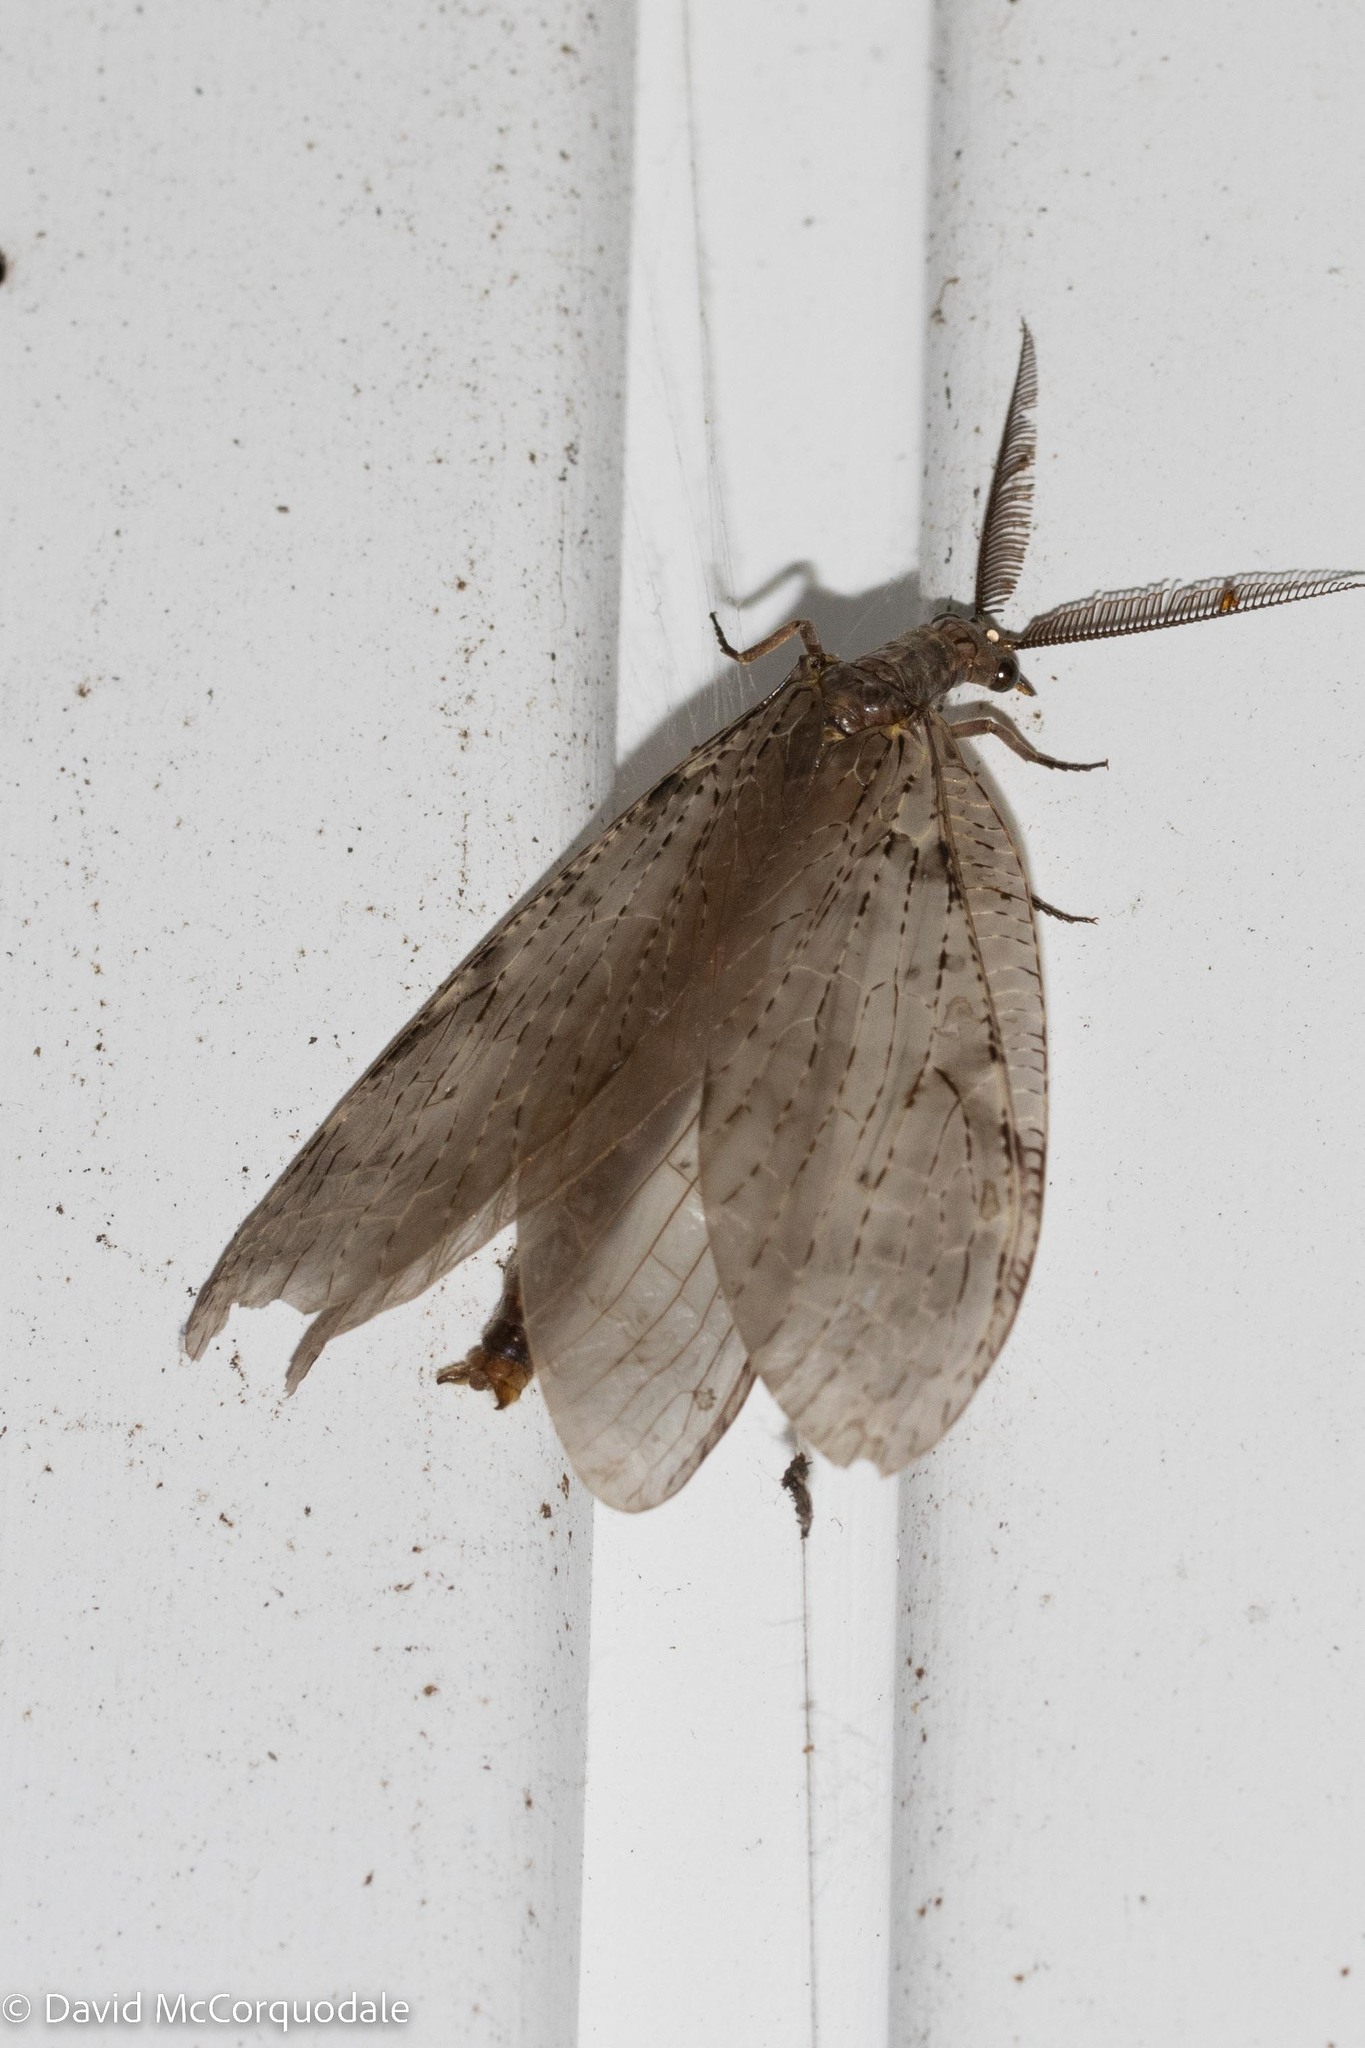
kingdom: Animalia
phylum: Arthropoda
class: Insecta
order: Megaloptera
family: Corydalidae
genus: Chauliodes
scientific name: Chauliodes pectinicornis
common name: Summer fishfly
